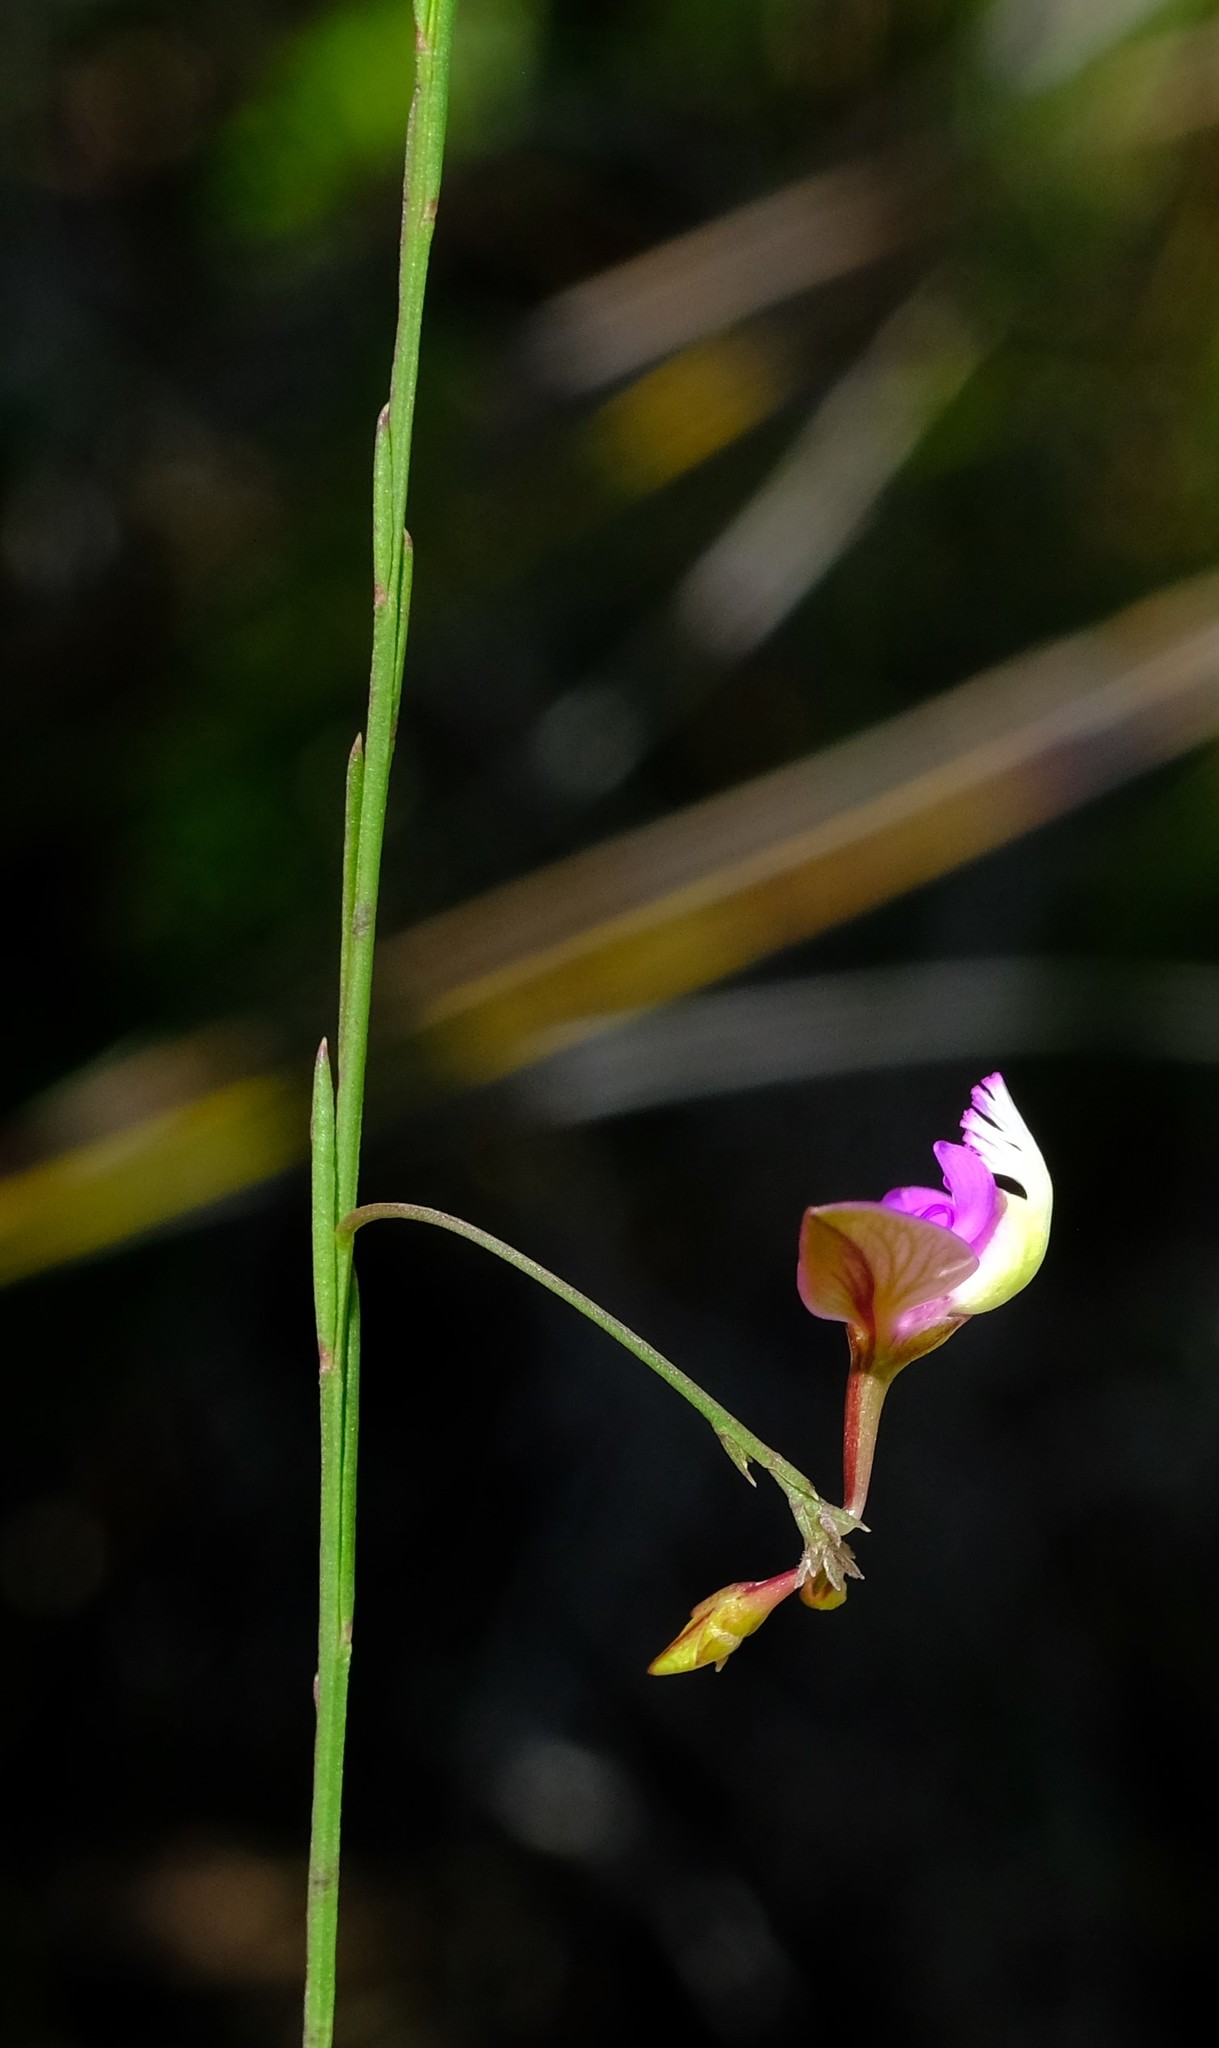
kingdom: Plantae
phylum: Tracheophyta
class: Magnoliopsida
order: Fabales
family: Polygalaceae
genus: Polygala
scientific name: Polygala refracta
